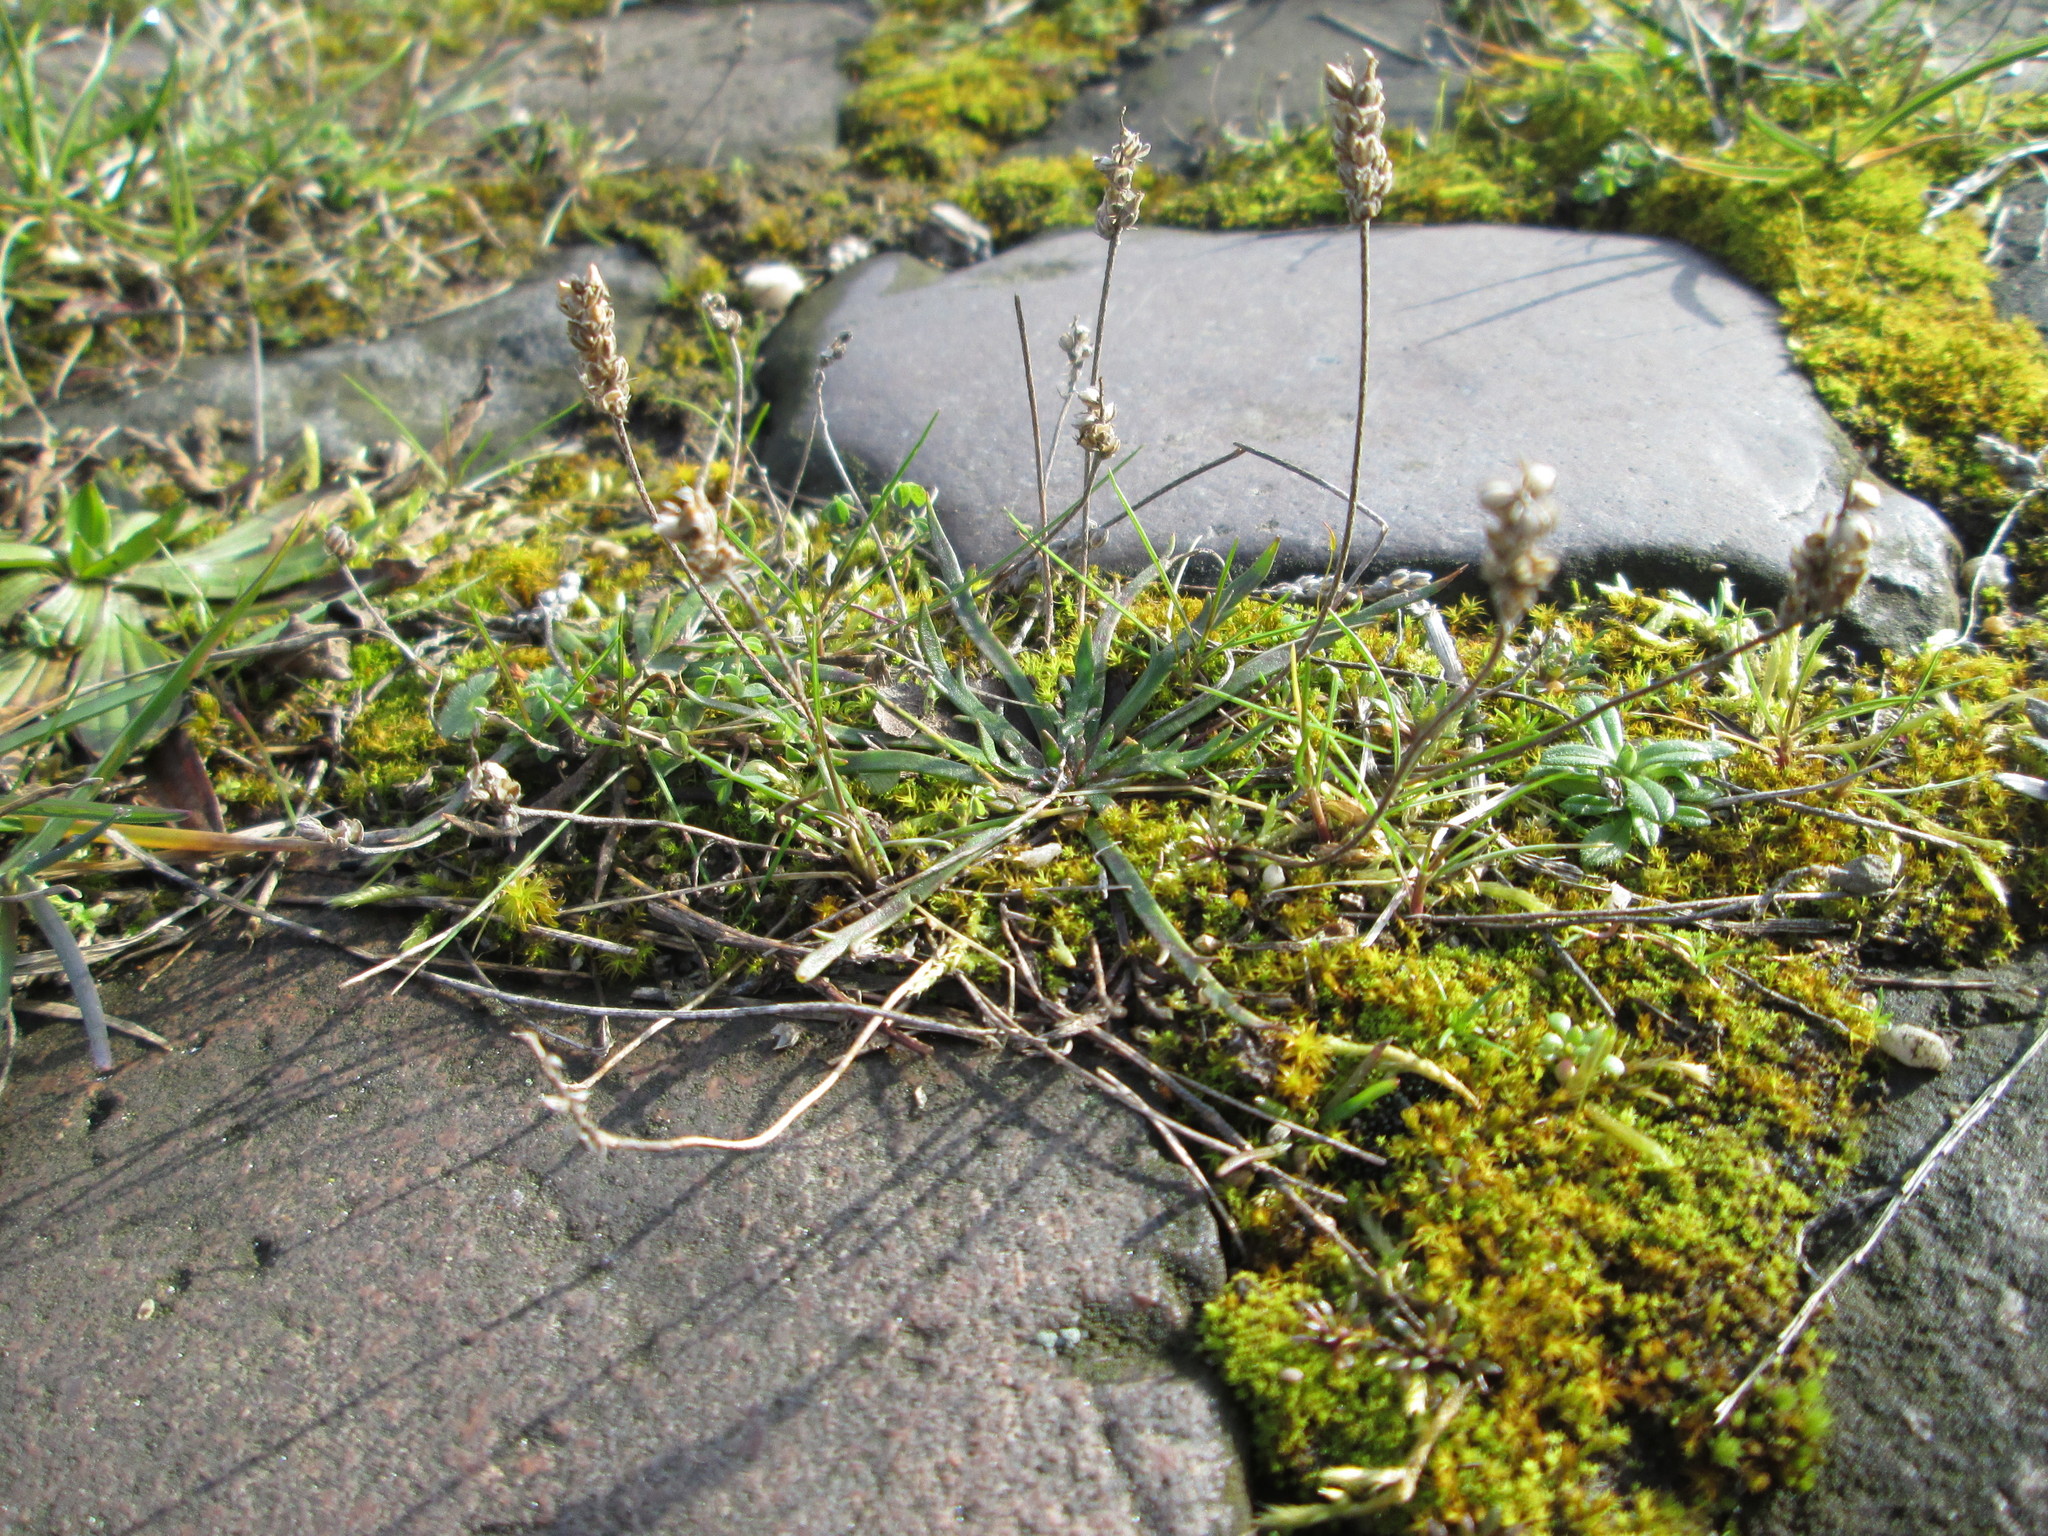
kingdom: Plantae
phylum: Tracheophyta
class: Magnoliopsida
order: Lamiales
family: Plantaginaceae
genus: Plantago
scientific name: Plantago coronopus
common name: Buck's-horn plantain
